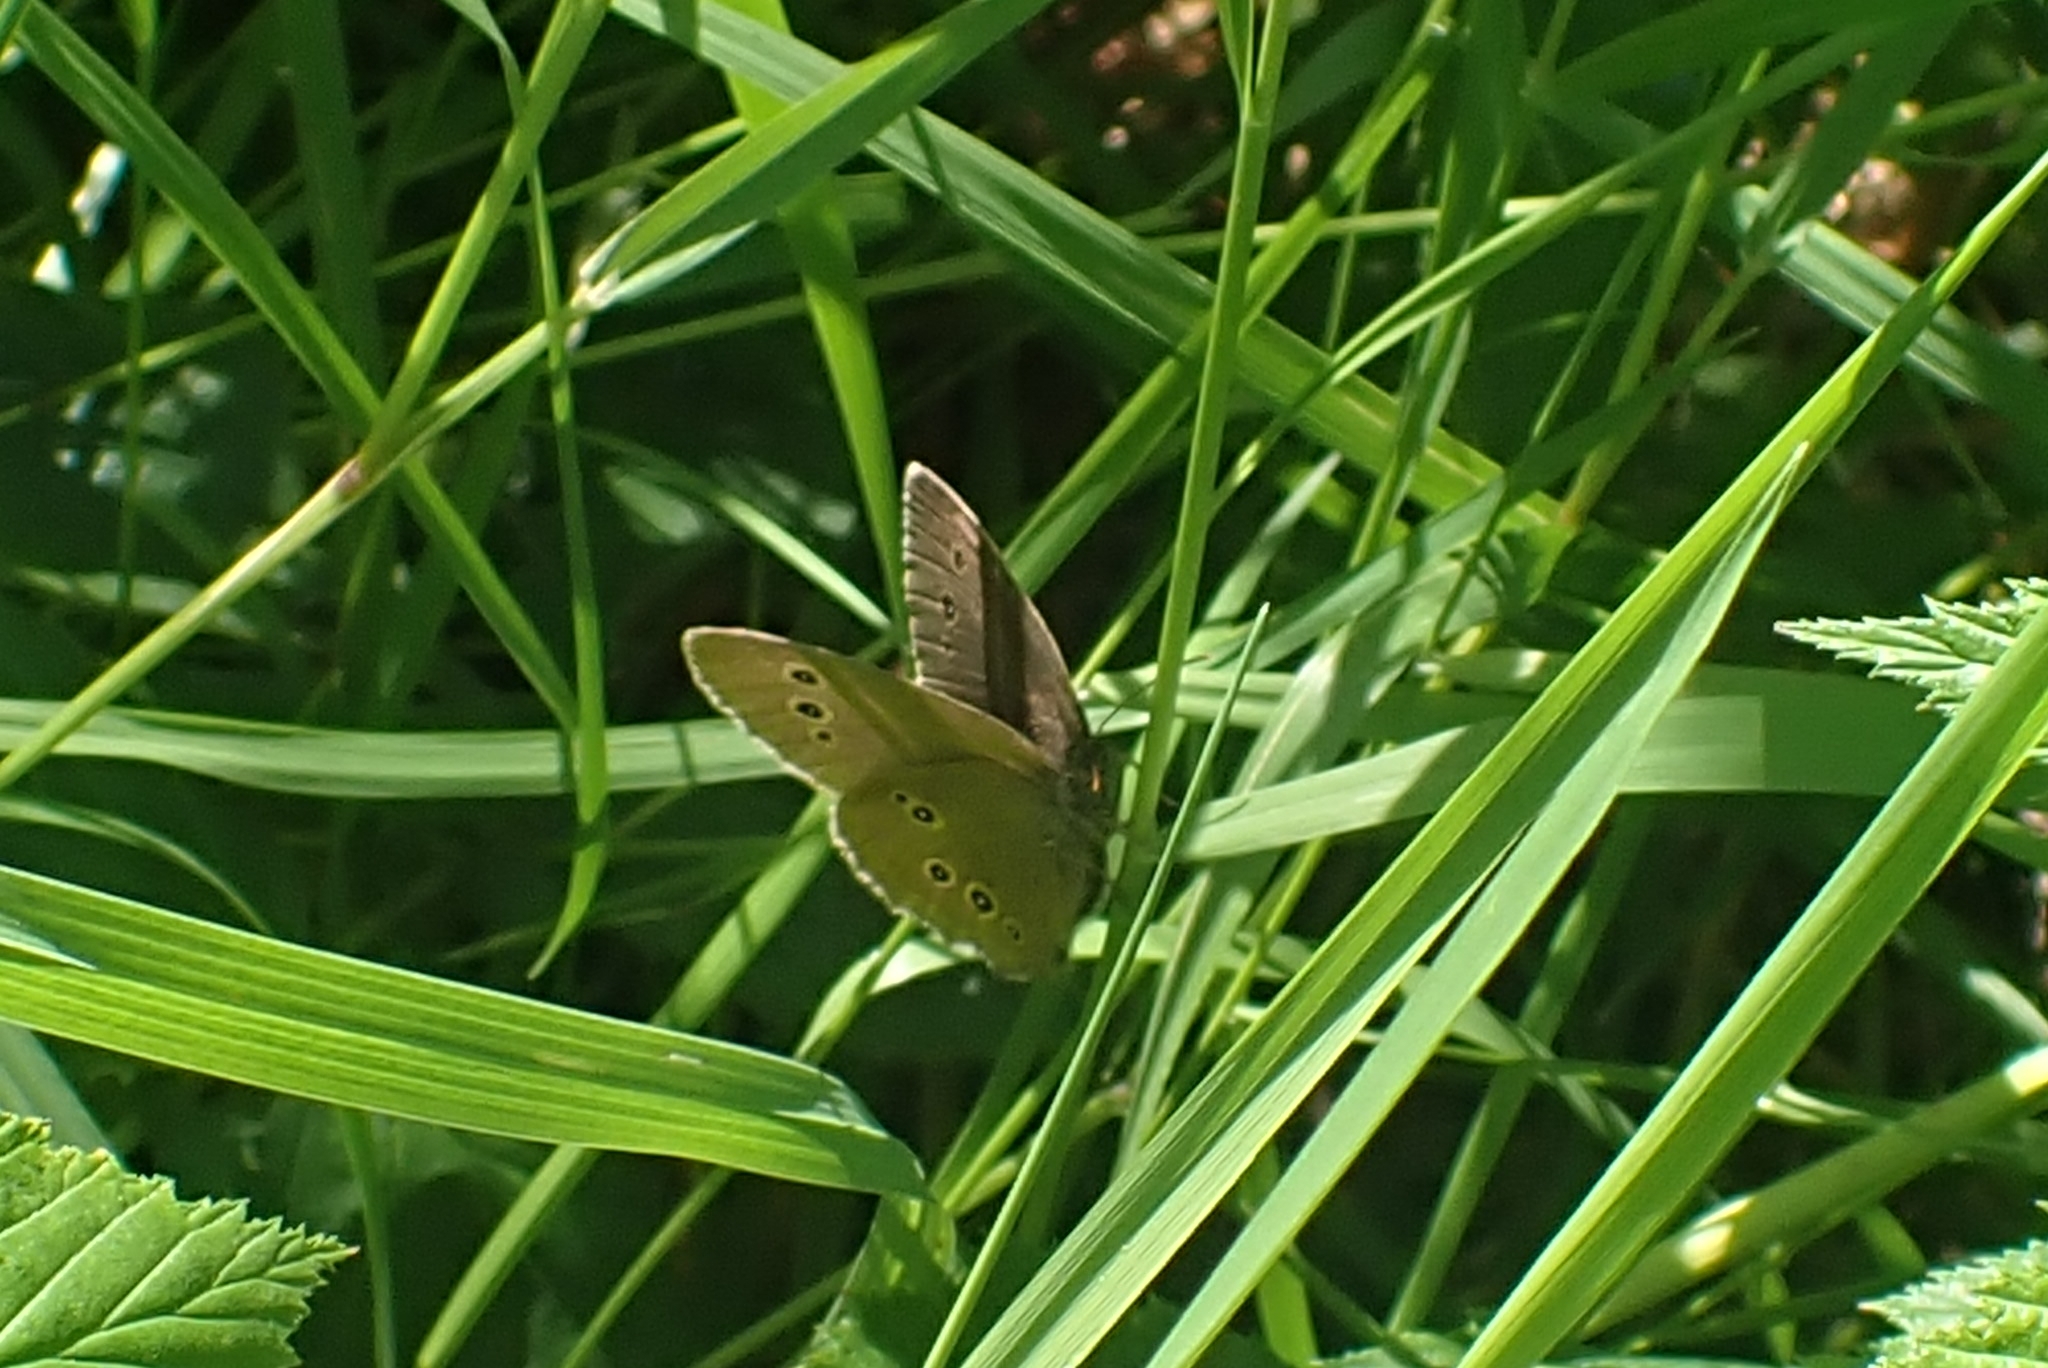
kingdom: Animalia
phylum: Arthropoda
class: Insecta
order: Lepidoptera
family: Nymphalidae
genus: Aphantopus
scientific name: Aphantopus hyperantus
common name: Ringlet
